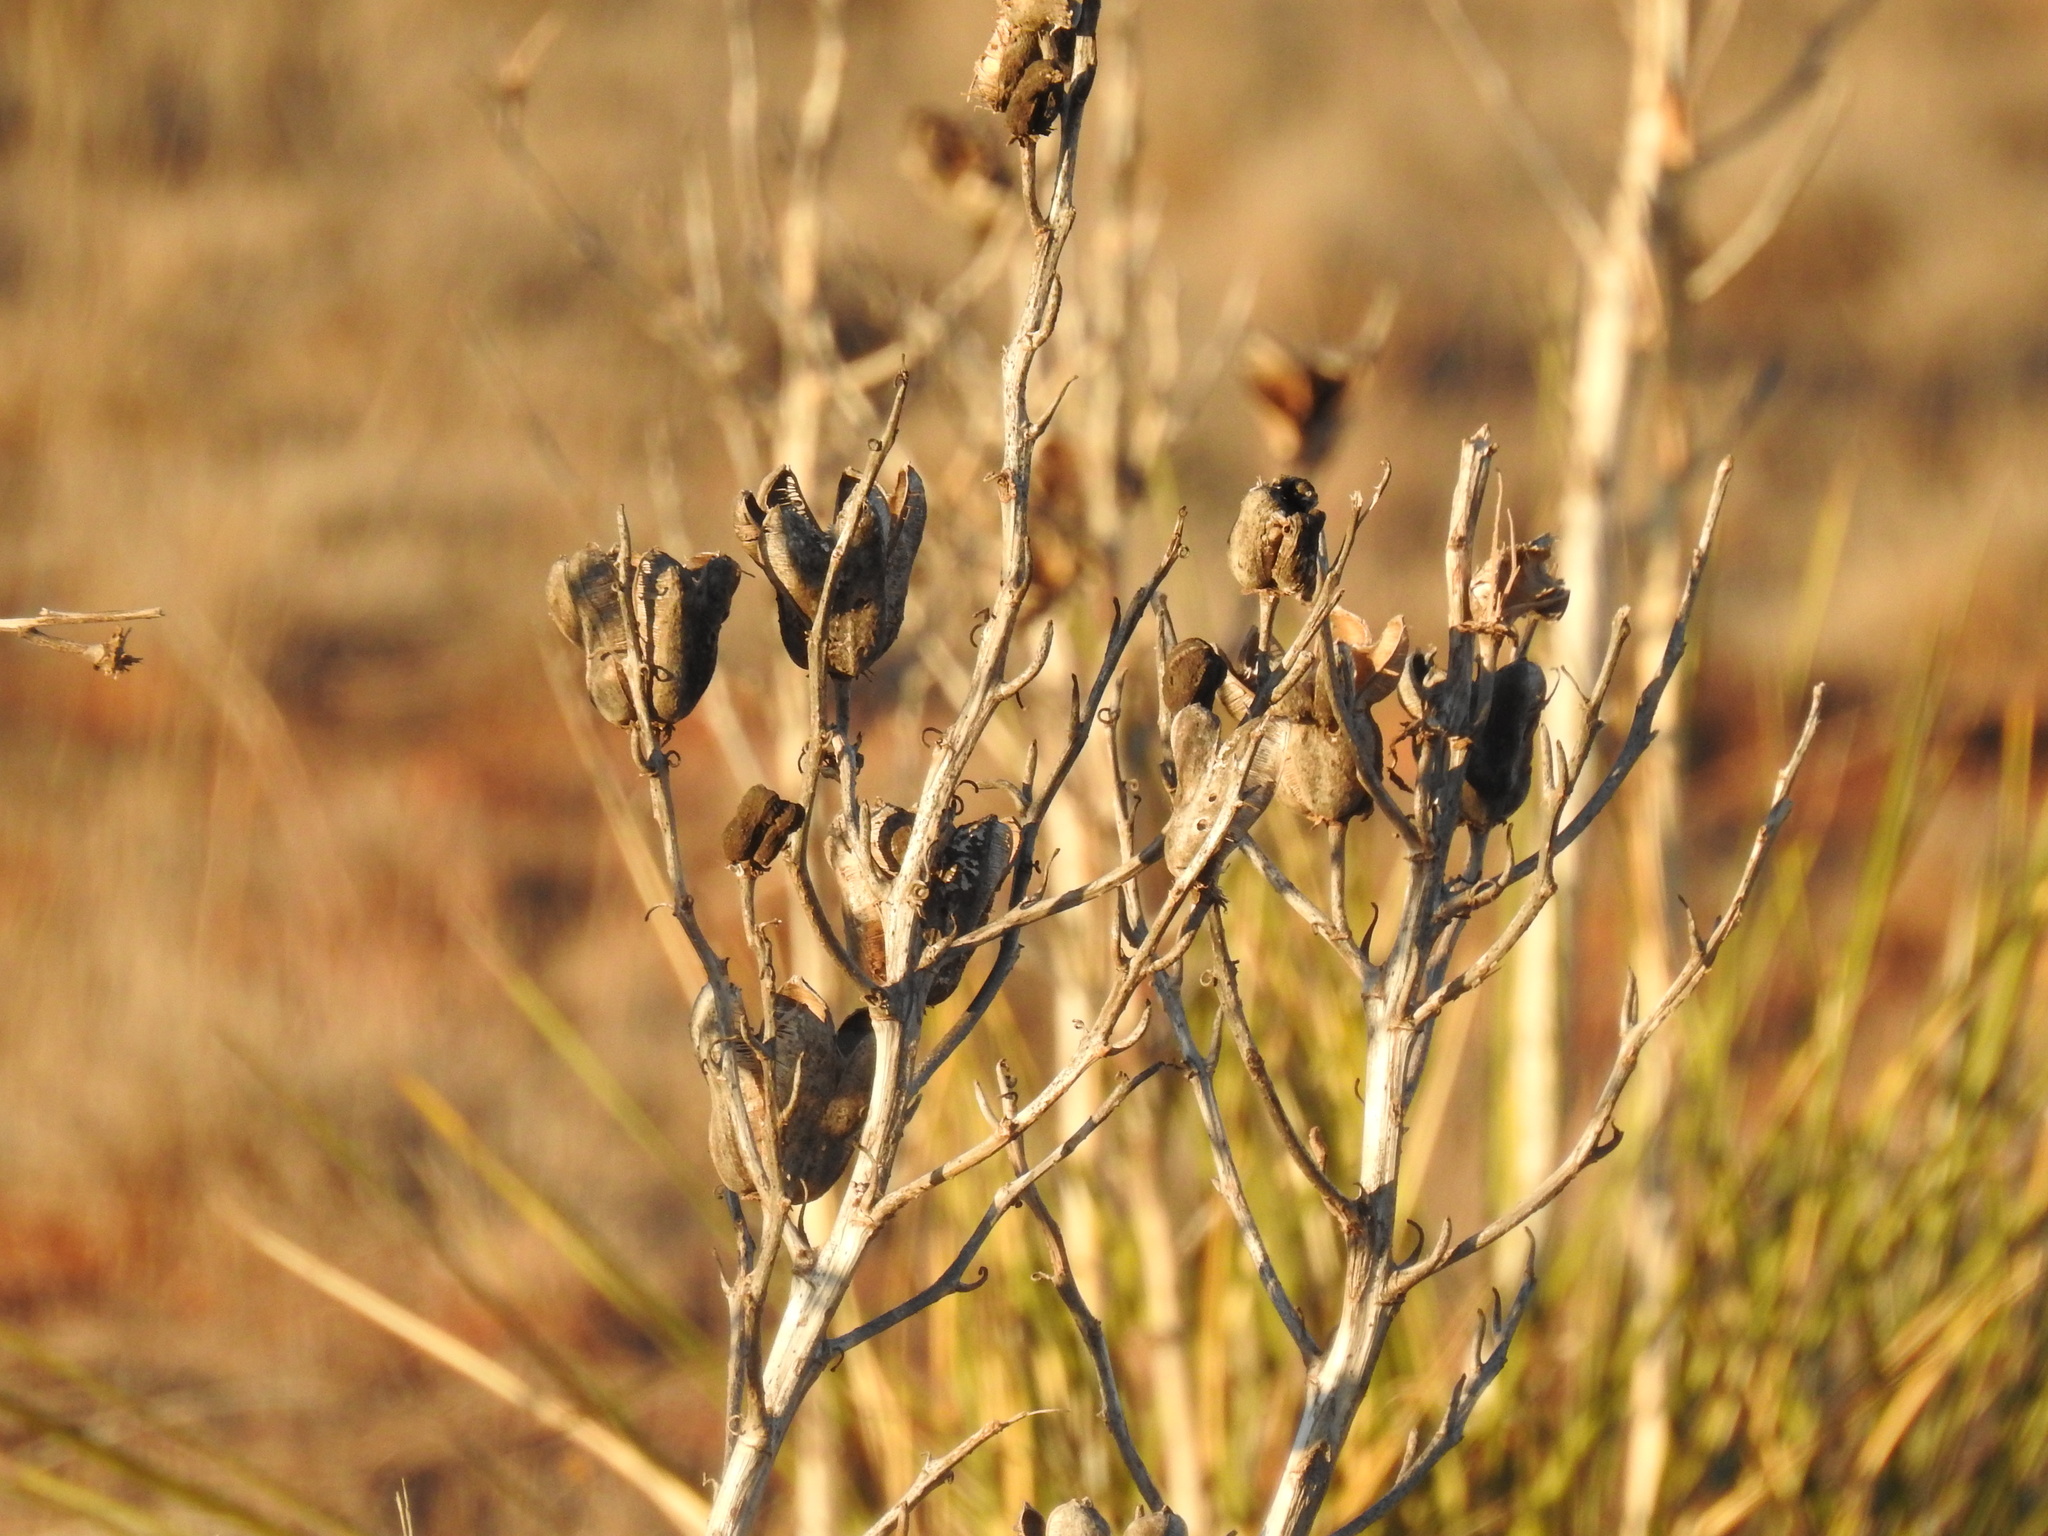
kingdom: Plantae
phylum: Tracheophyta
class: Liliopsida
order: Asparagales
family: Asparagaceae
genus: Yucca
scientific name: Yucca campestris
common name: Plains yucca
